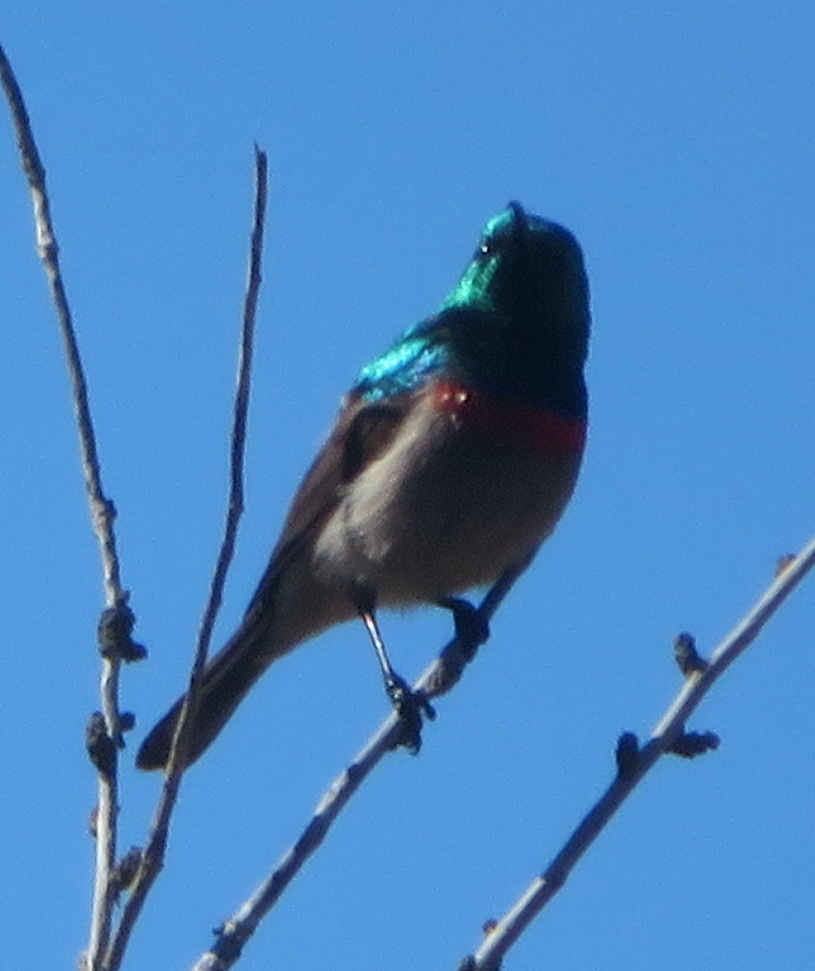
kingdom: Animalia
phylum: Chordata
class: Aves
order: Passeriformes
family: Nectariniidae
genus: Cinnyris
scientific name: Cinnyris chalybeus
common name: Southern double-collared sunbird
